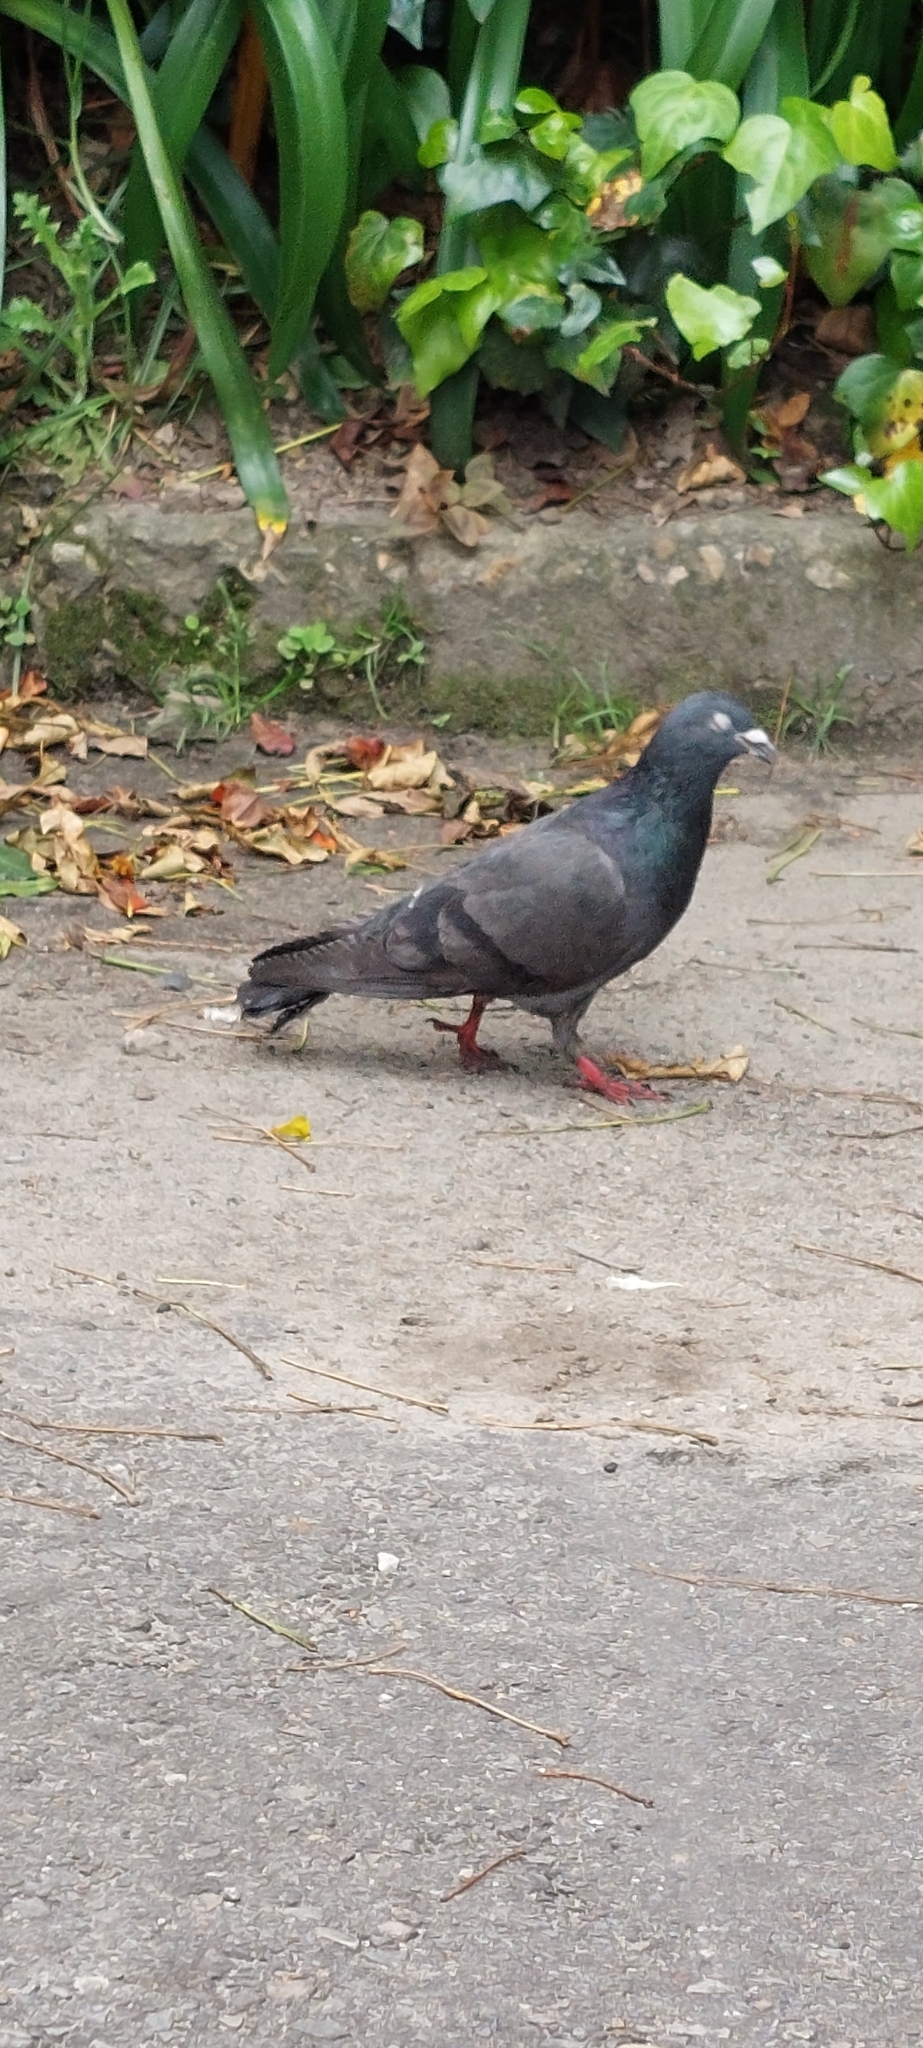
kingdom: Animalia
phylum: Chordata
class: Aves
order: Columbiformes
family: Columbidae
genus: Columba
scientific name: Columba livia
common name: Rock pigeon
